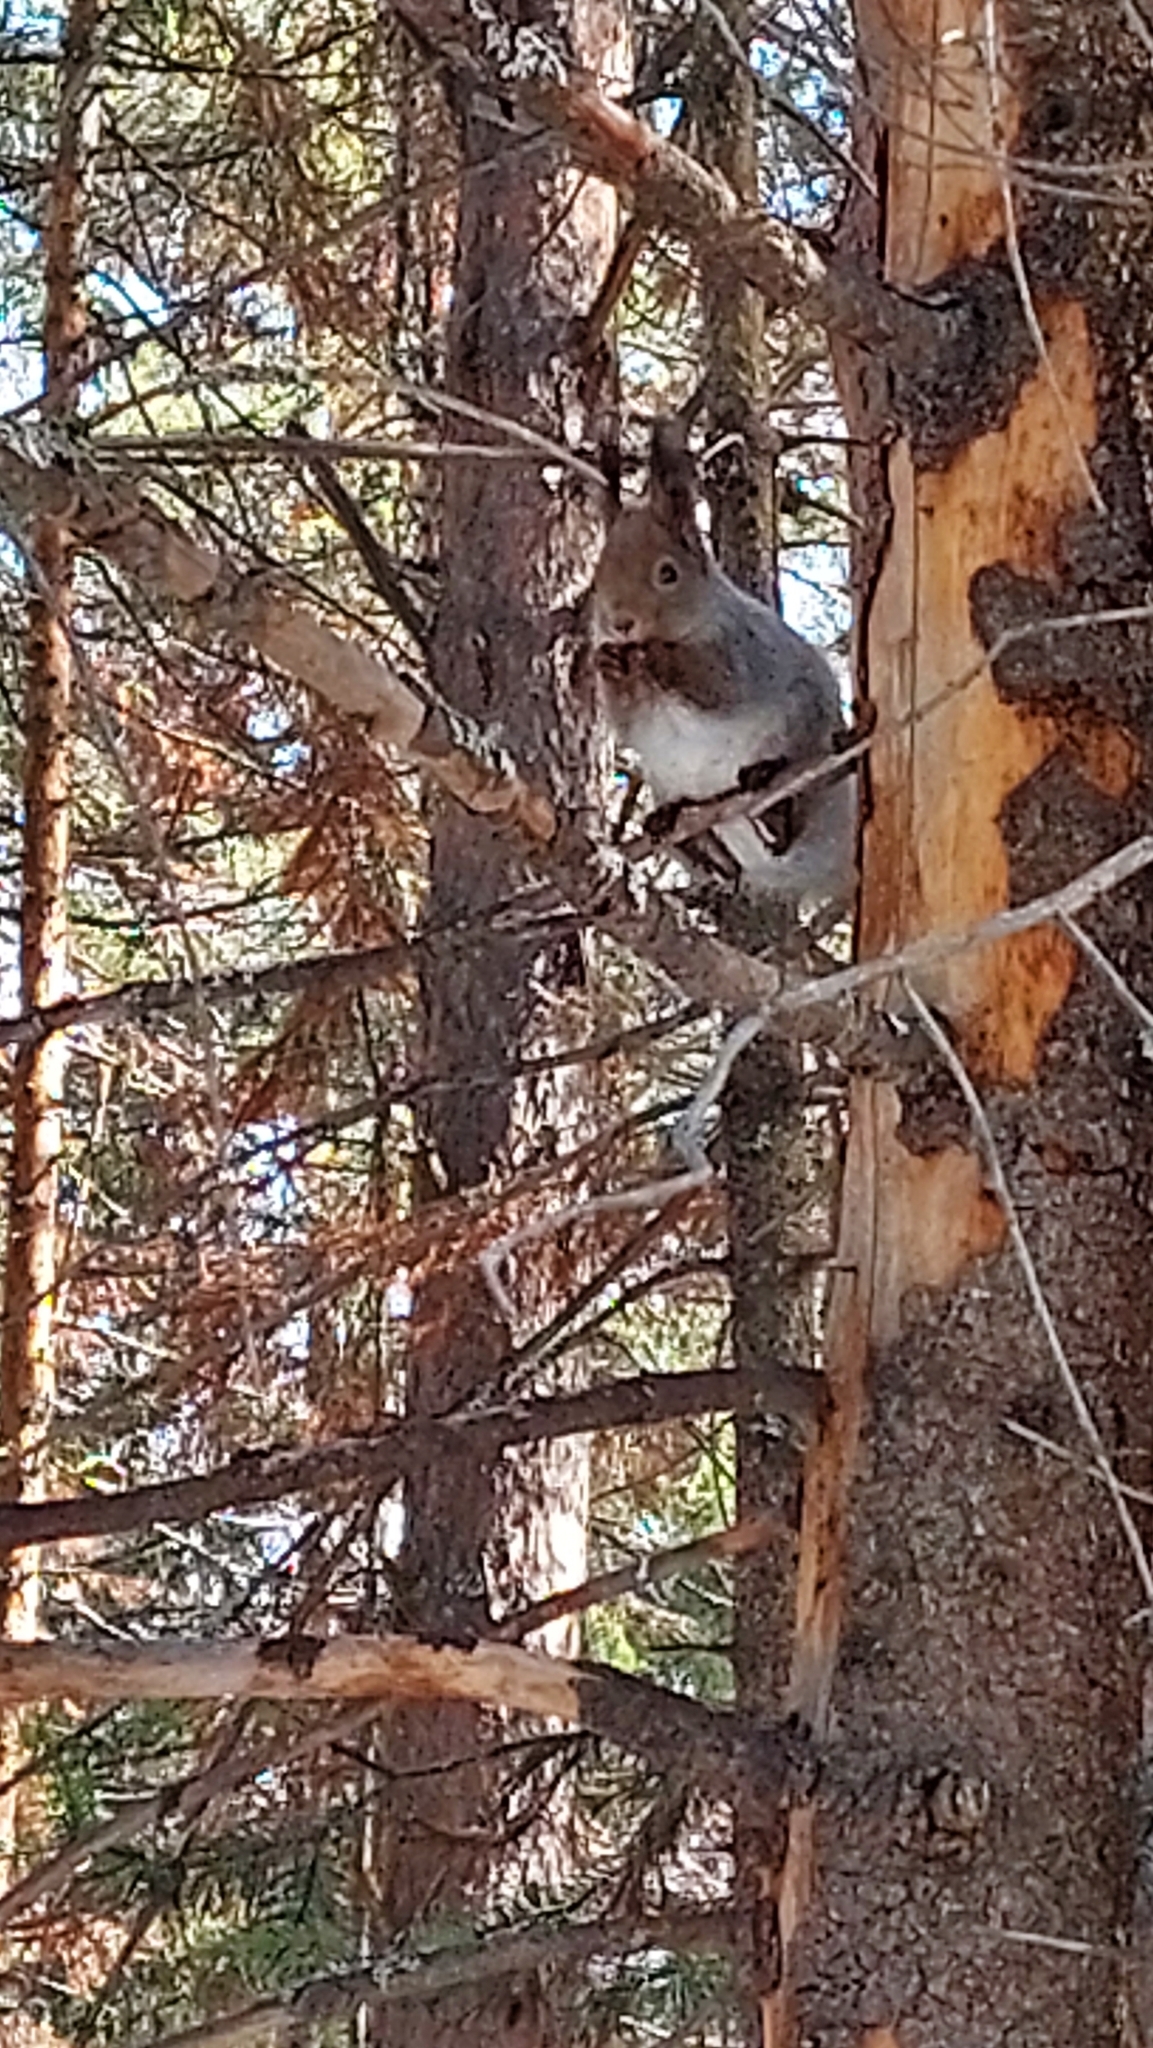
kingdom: Animalia
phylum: Chordata
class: Mammalia
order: Rodentia
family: Sciuridae
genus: Sciurus
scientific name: Sciurus vulgaris
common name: Eurasian red squirrel
